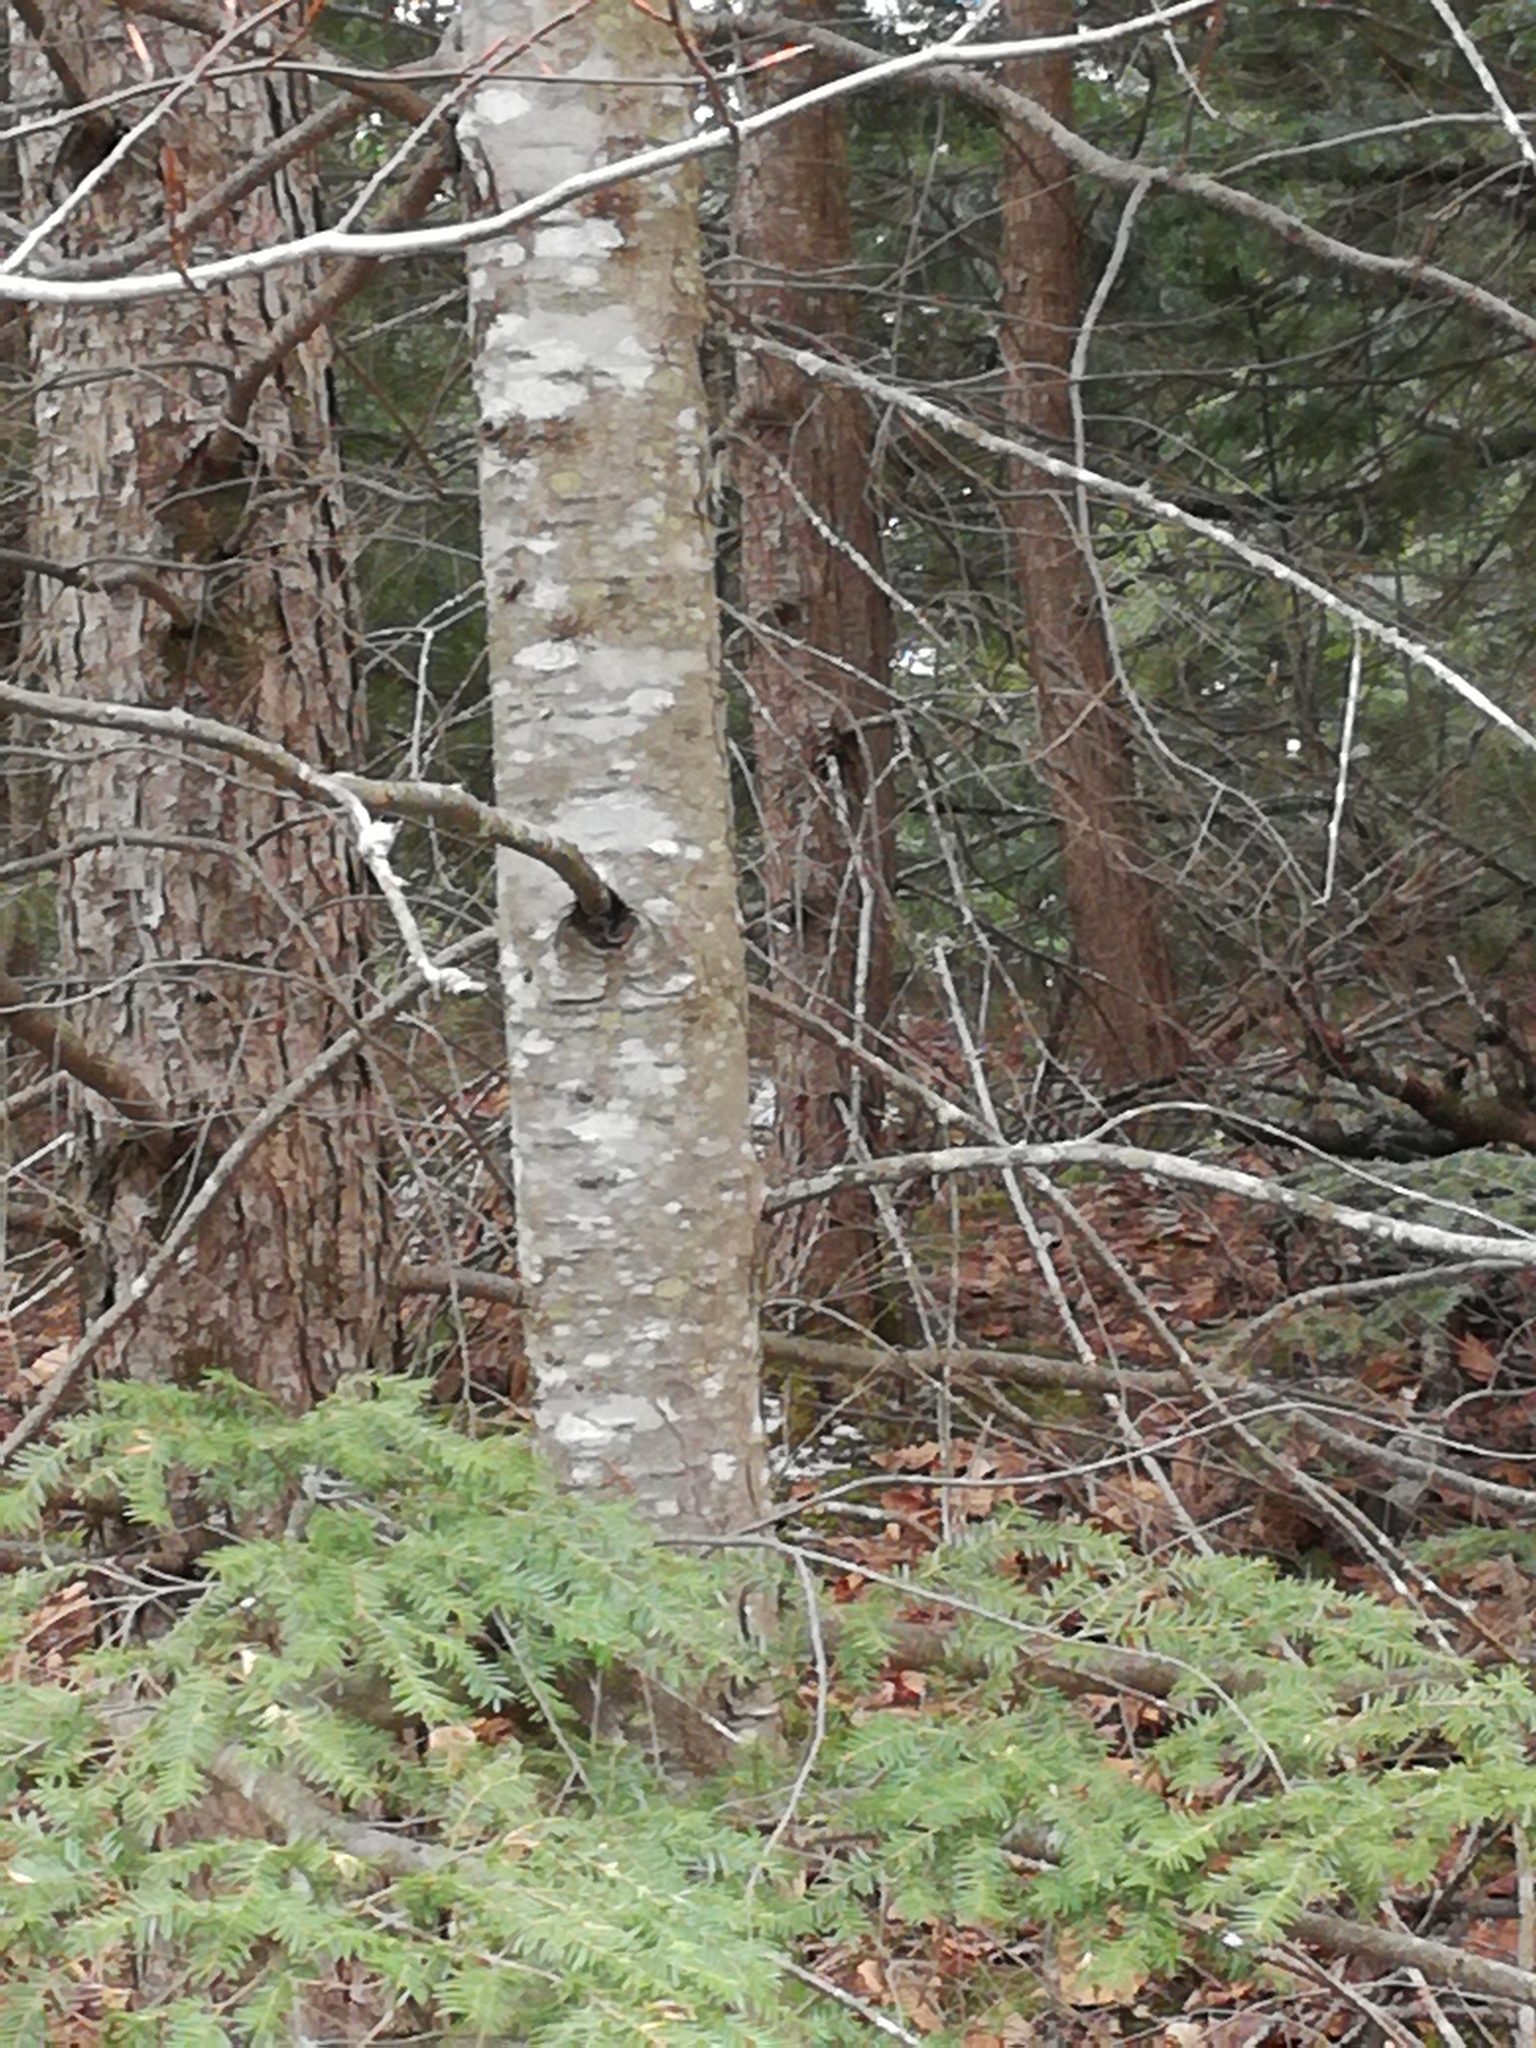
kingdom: Plantae
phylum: Tracheophyta
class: Pinopsida
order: Pinales
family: Pinaceae
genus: Tsuga
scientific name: Tsuga canadensis
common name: Eastern hemlock
